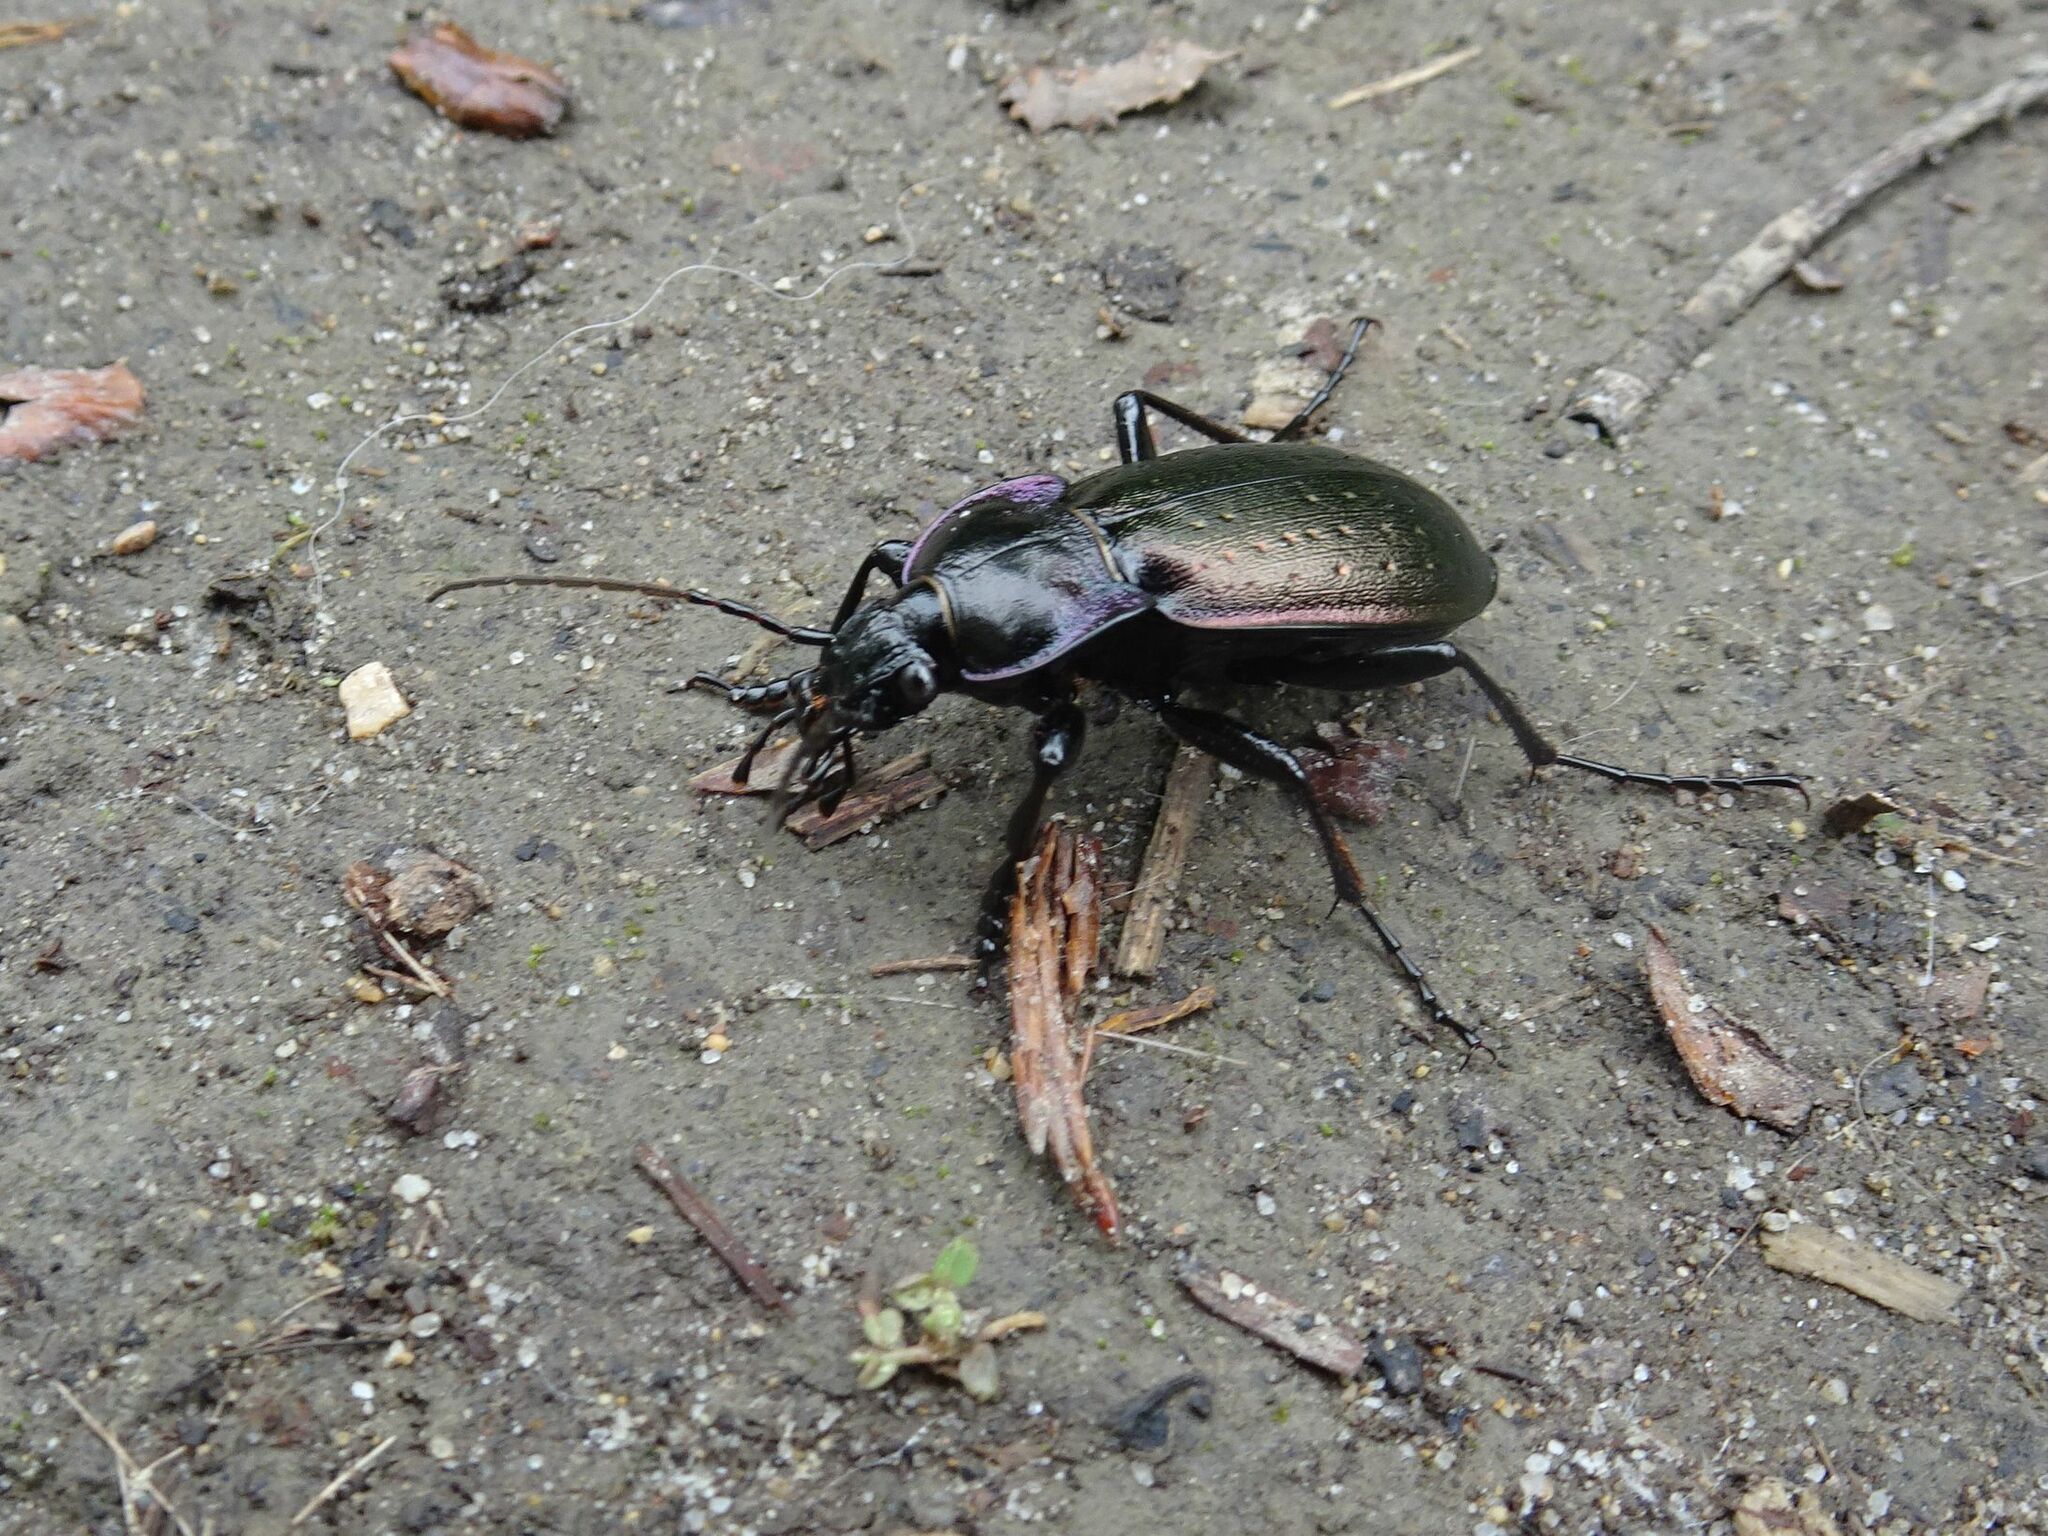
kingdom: Animalia
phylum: Arthropoda
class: Insecta
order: Coleoptera
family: Carabidae
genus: Carabus
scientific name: Carabus nemoralis
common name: European ground beetle
